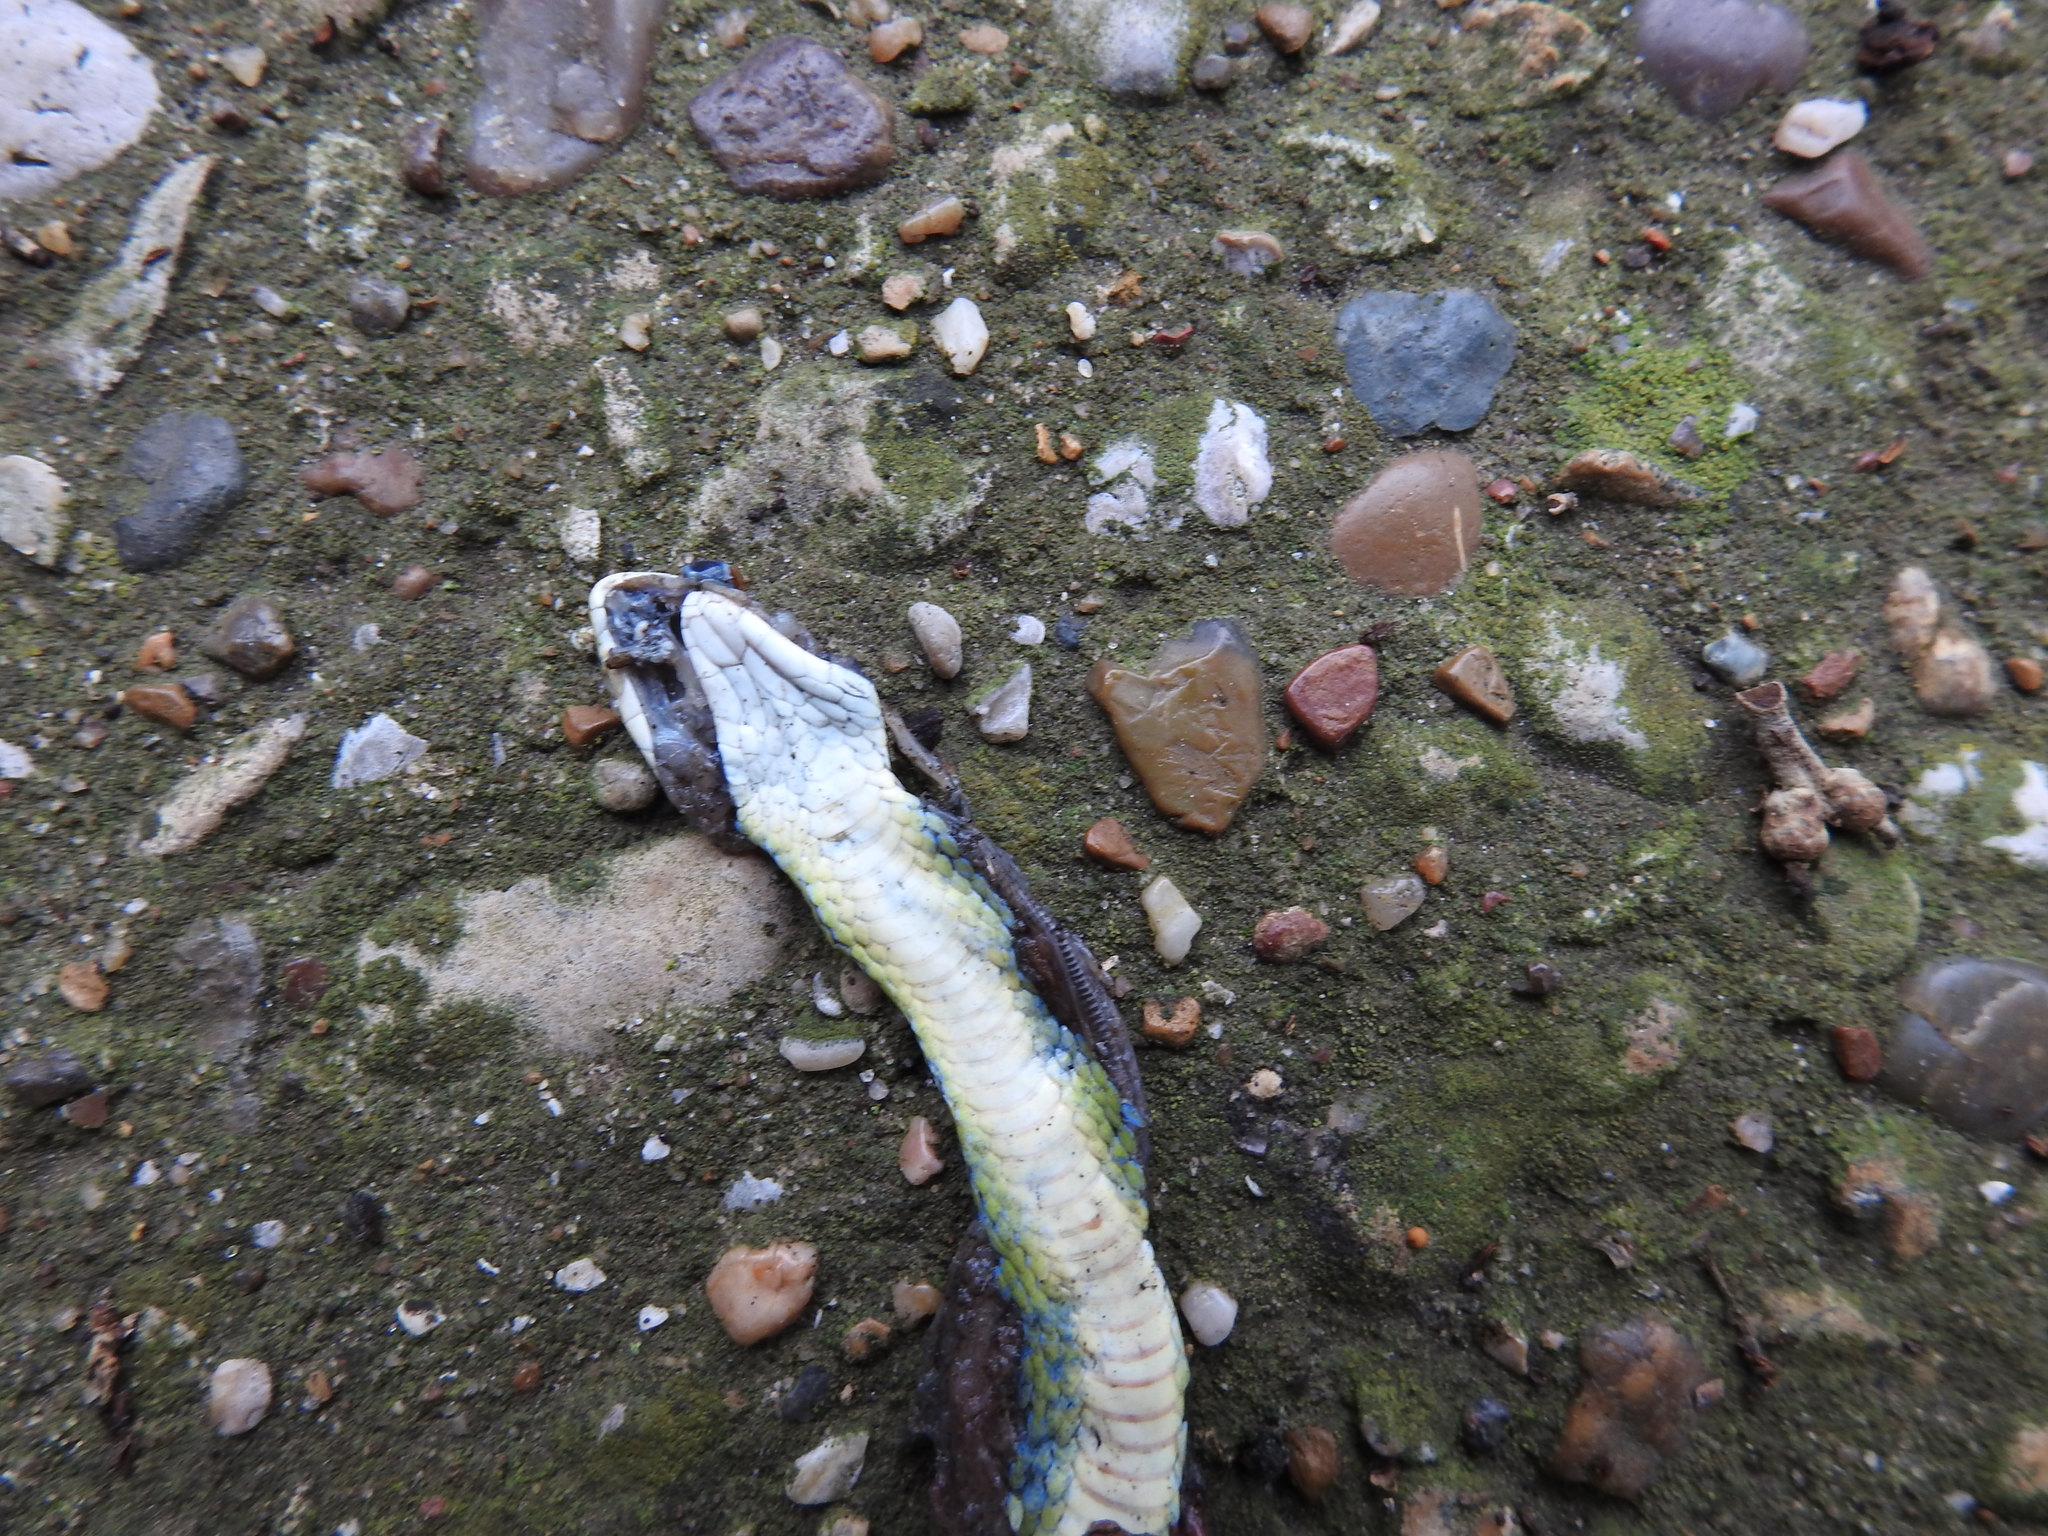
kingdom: Animalia
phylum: Chordata
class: Squamata
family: Colubridae
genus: Opheodrys
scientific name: Opheodrys aestivus
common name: Rough greensnake
